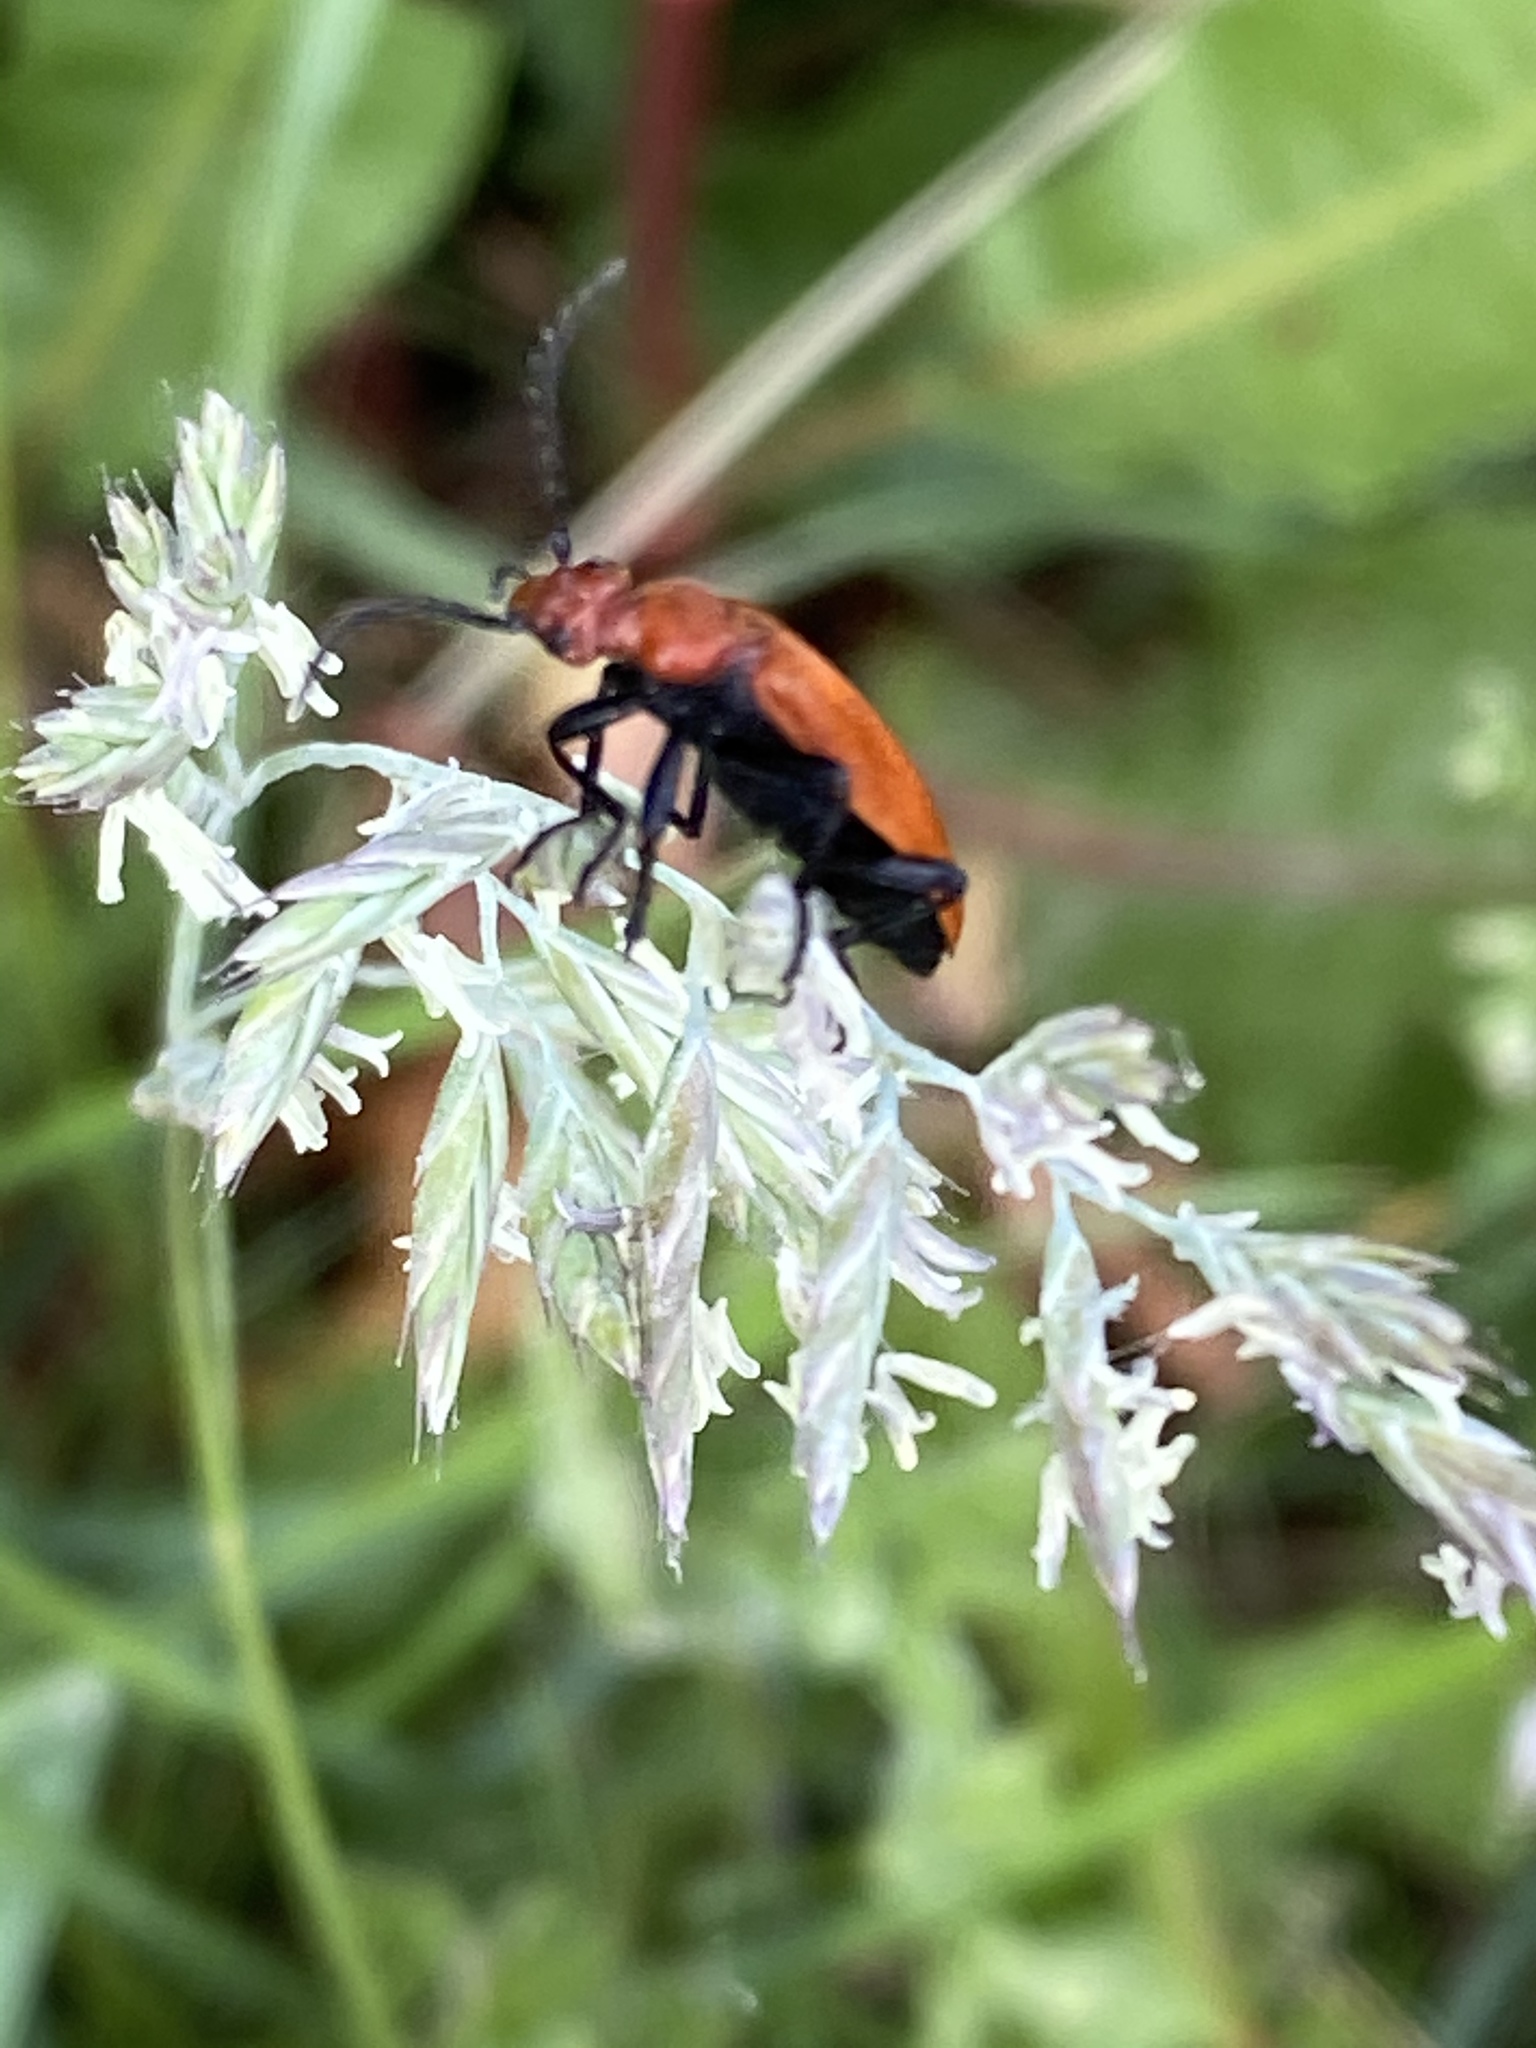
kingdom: Animalia
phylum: Arthropoda
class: Insecta
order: Coleoptera
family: Pyrochroidae
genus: Pyrochroa
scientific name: Pyrochroa serraticornis
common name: Red-headed cardinal beetle
